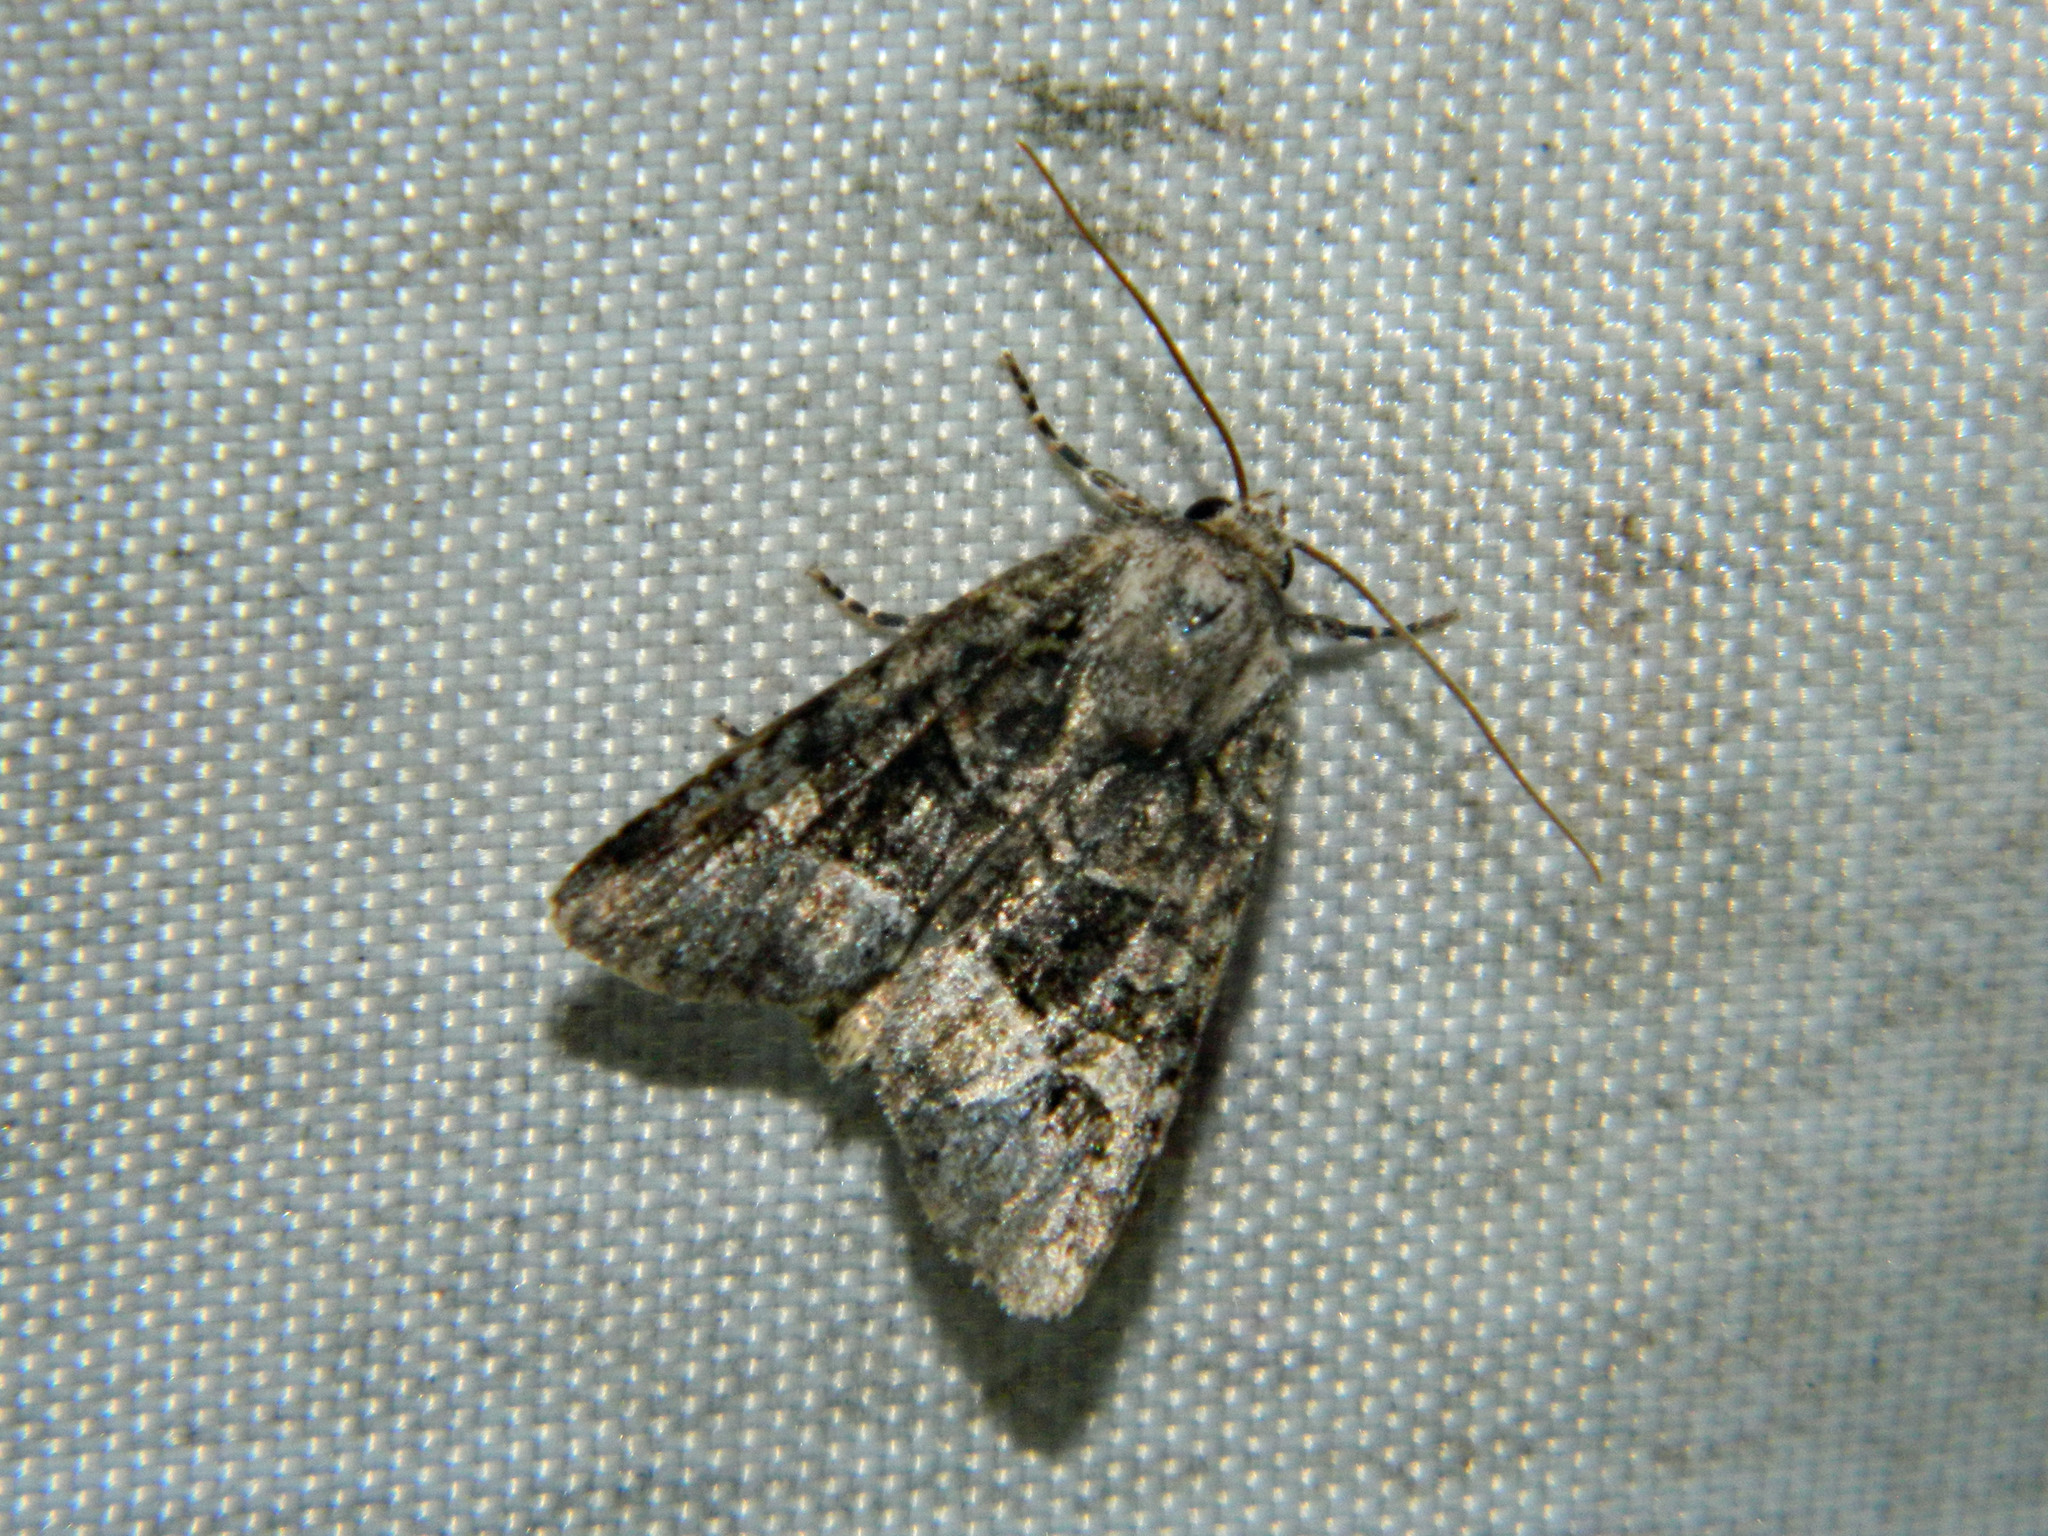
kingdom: Animalia
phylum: Arthropoda
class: Insecta
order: Lepidoptera
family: Noctuidae
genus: Lacinipolia
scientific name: Lacinipolia olivacea
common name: Olive arches moth
